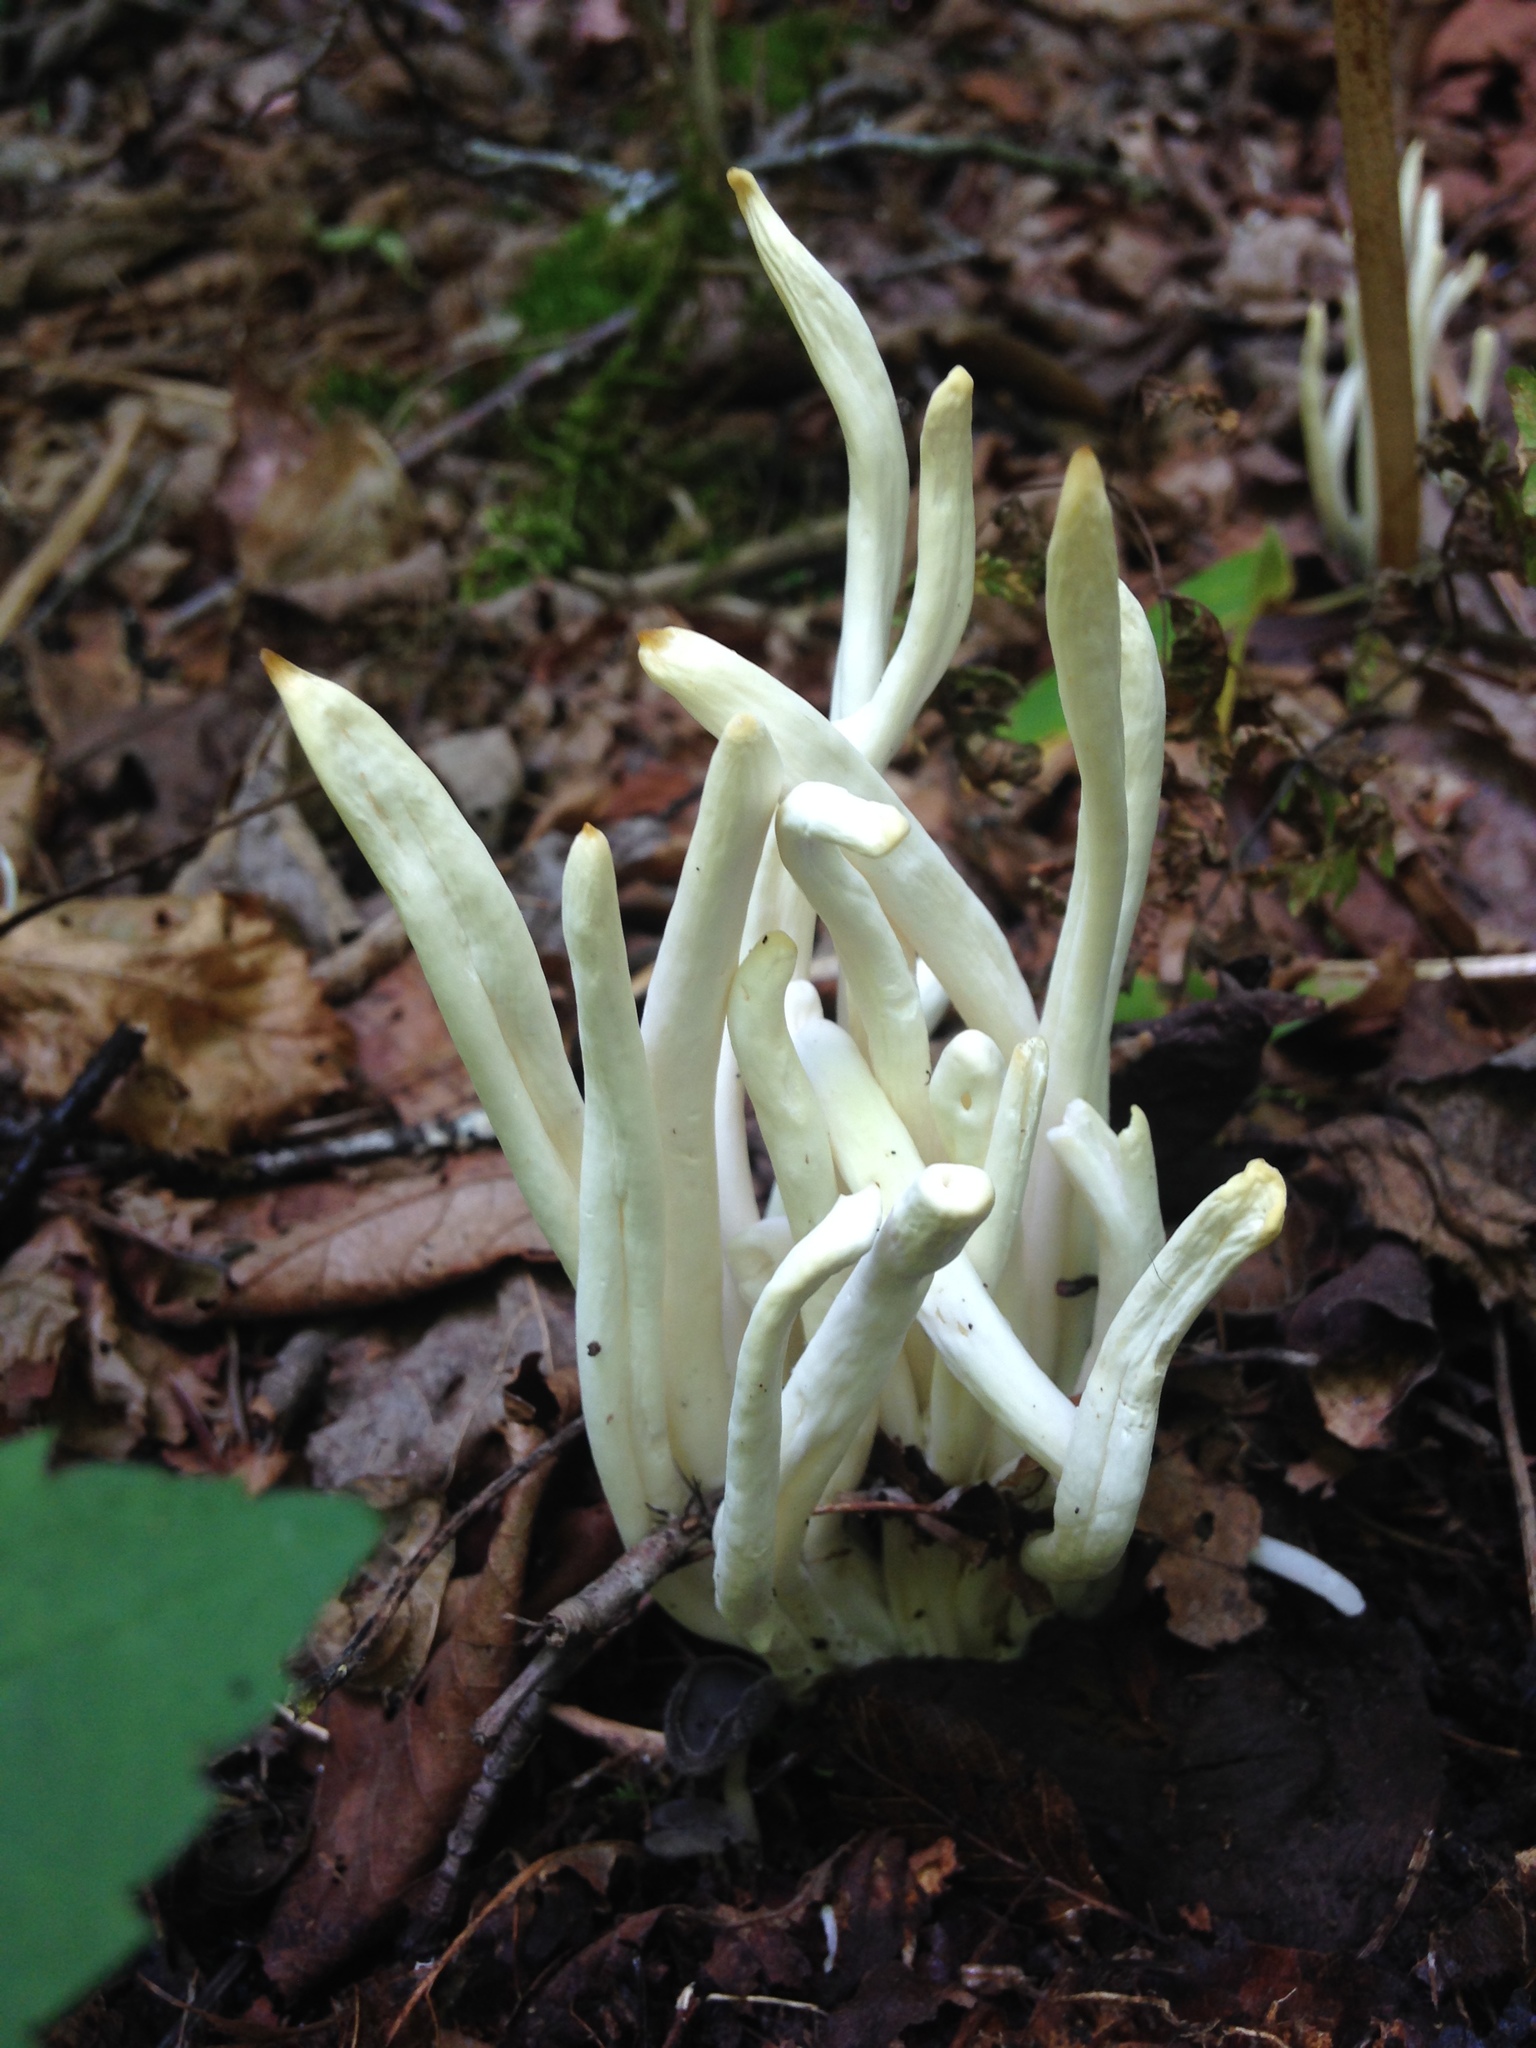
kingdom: Fungi
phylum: Basidiomycota
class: Agaricomycetes
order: Agaricales
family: Clavariaceae
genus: Clavaria
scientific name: Clavaria fragilis
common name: White spindles
